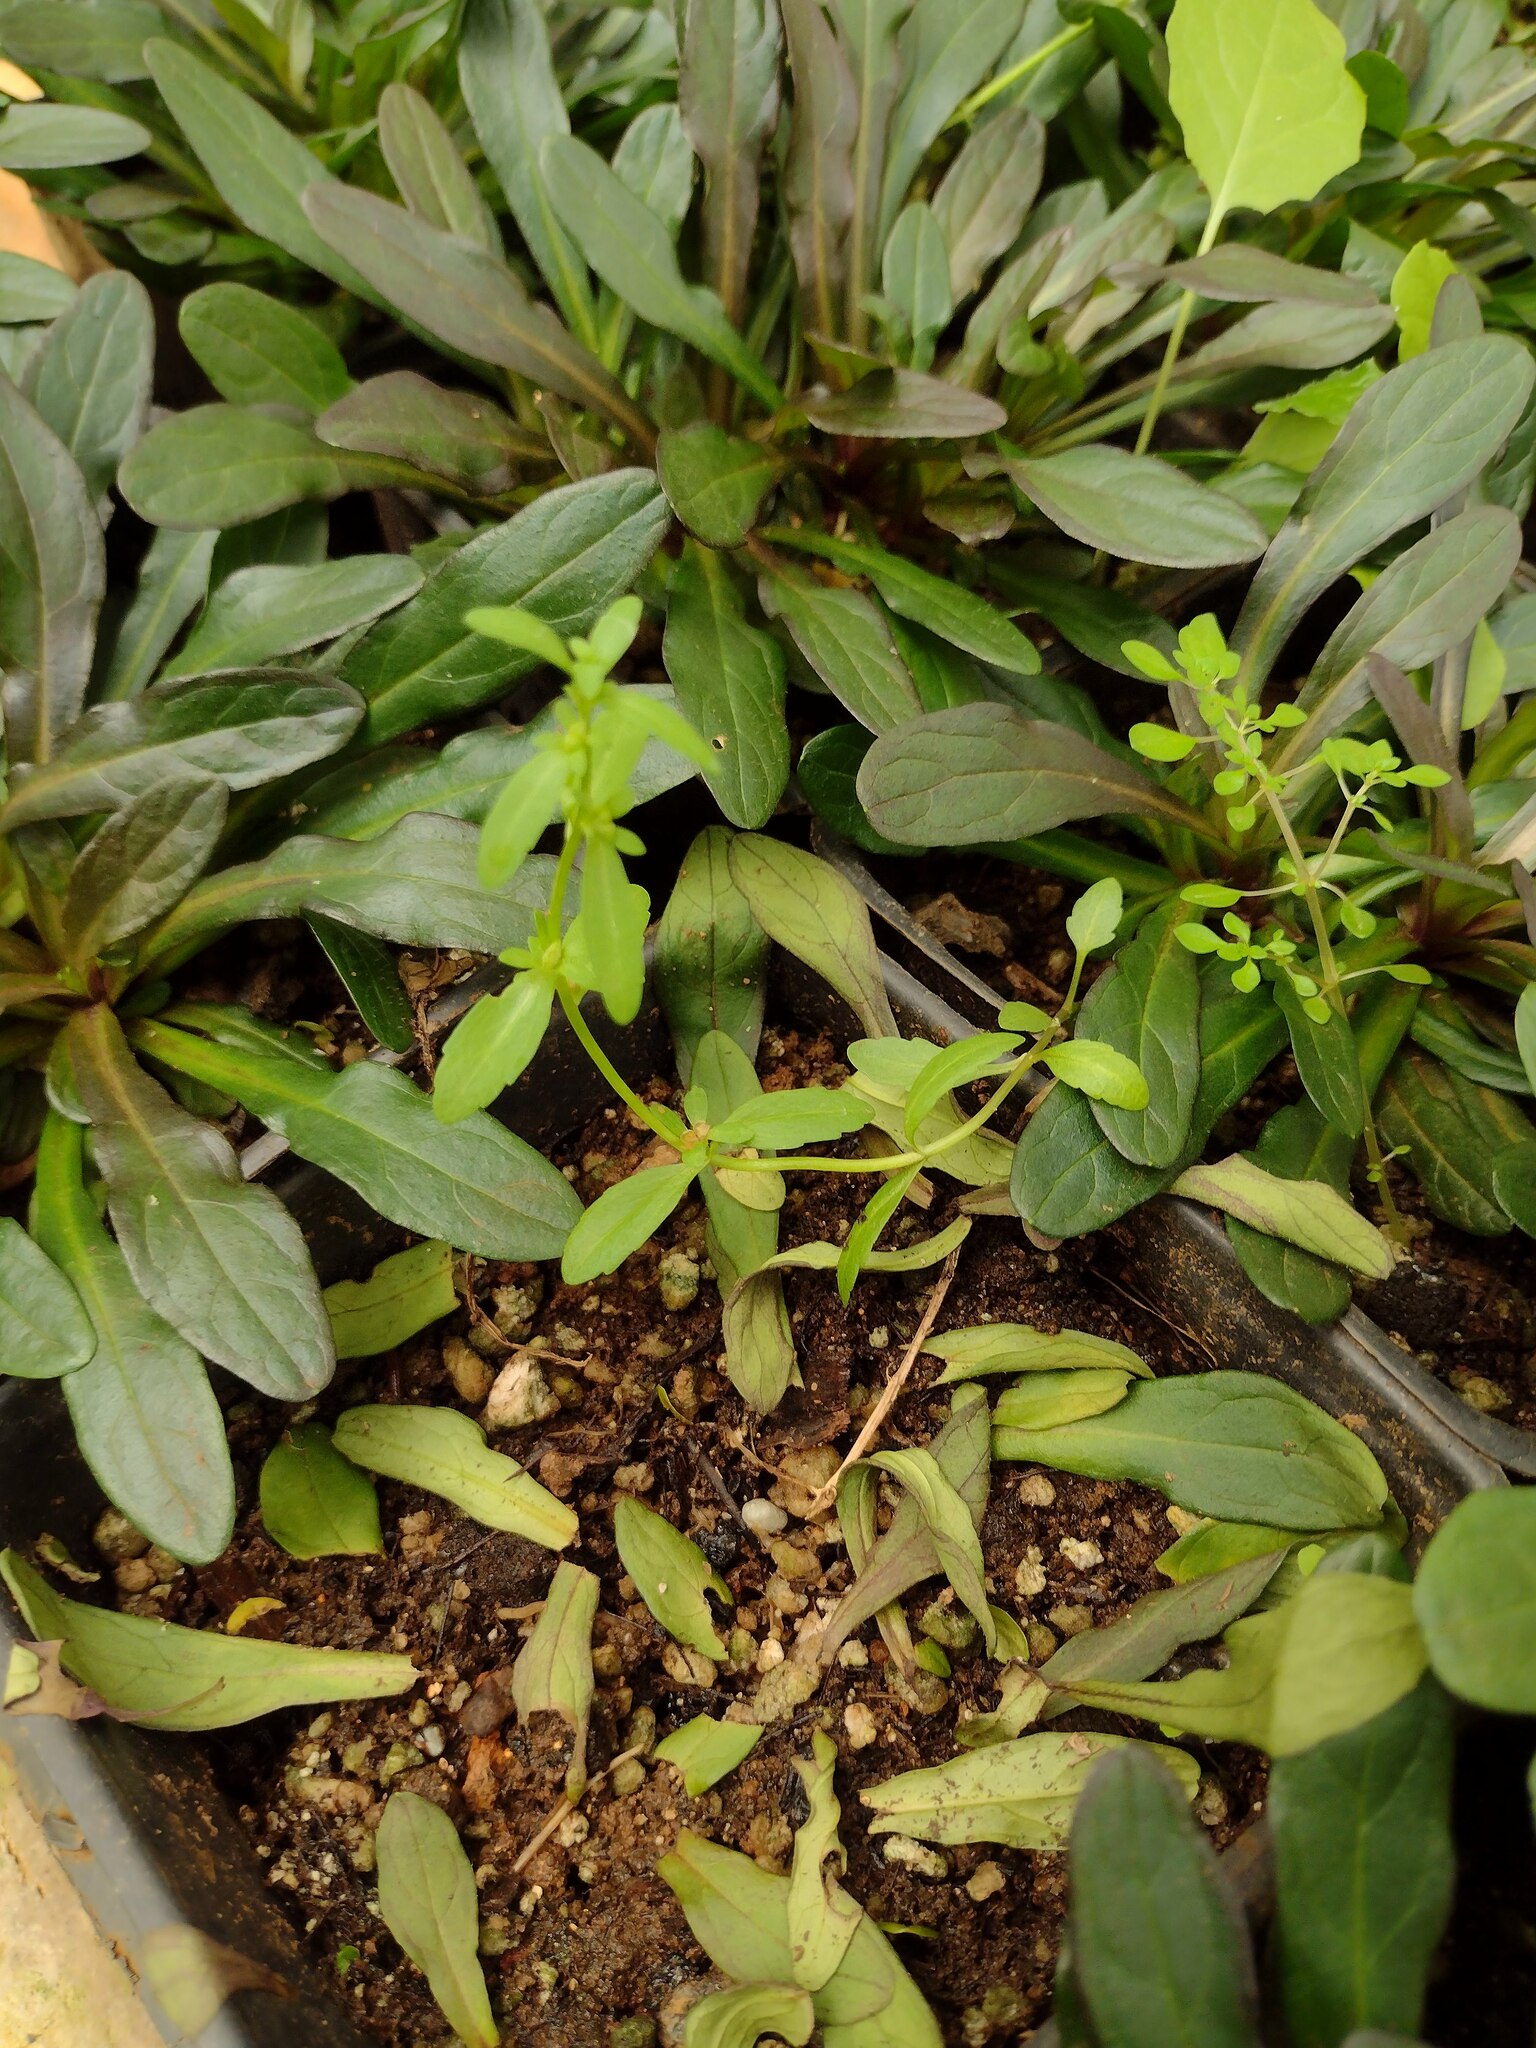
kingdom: Plantae
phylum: Tracheophyta
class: Magnoliopsida
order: Lamiales
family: Plantaginaceae
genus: Veronica
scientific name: Veronica peregrina
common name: Neckweed
